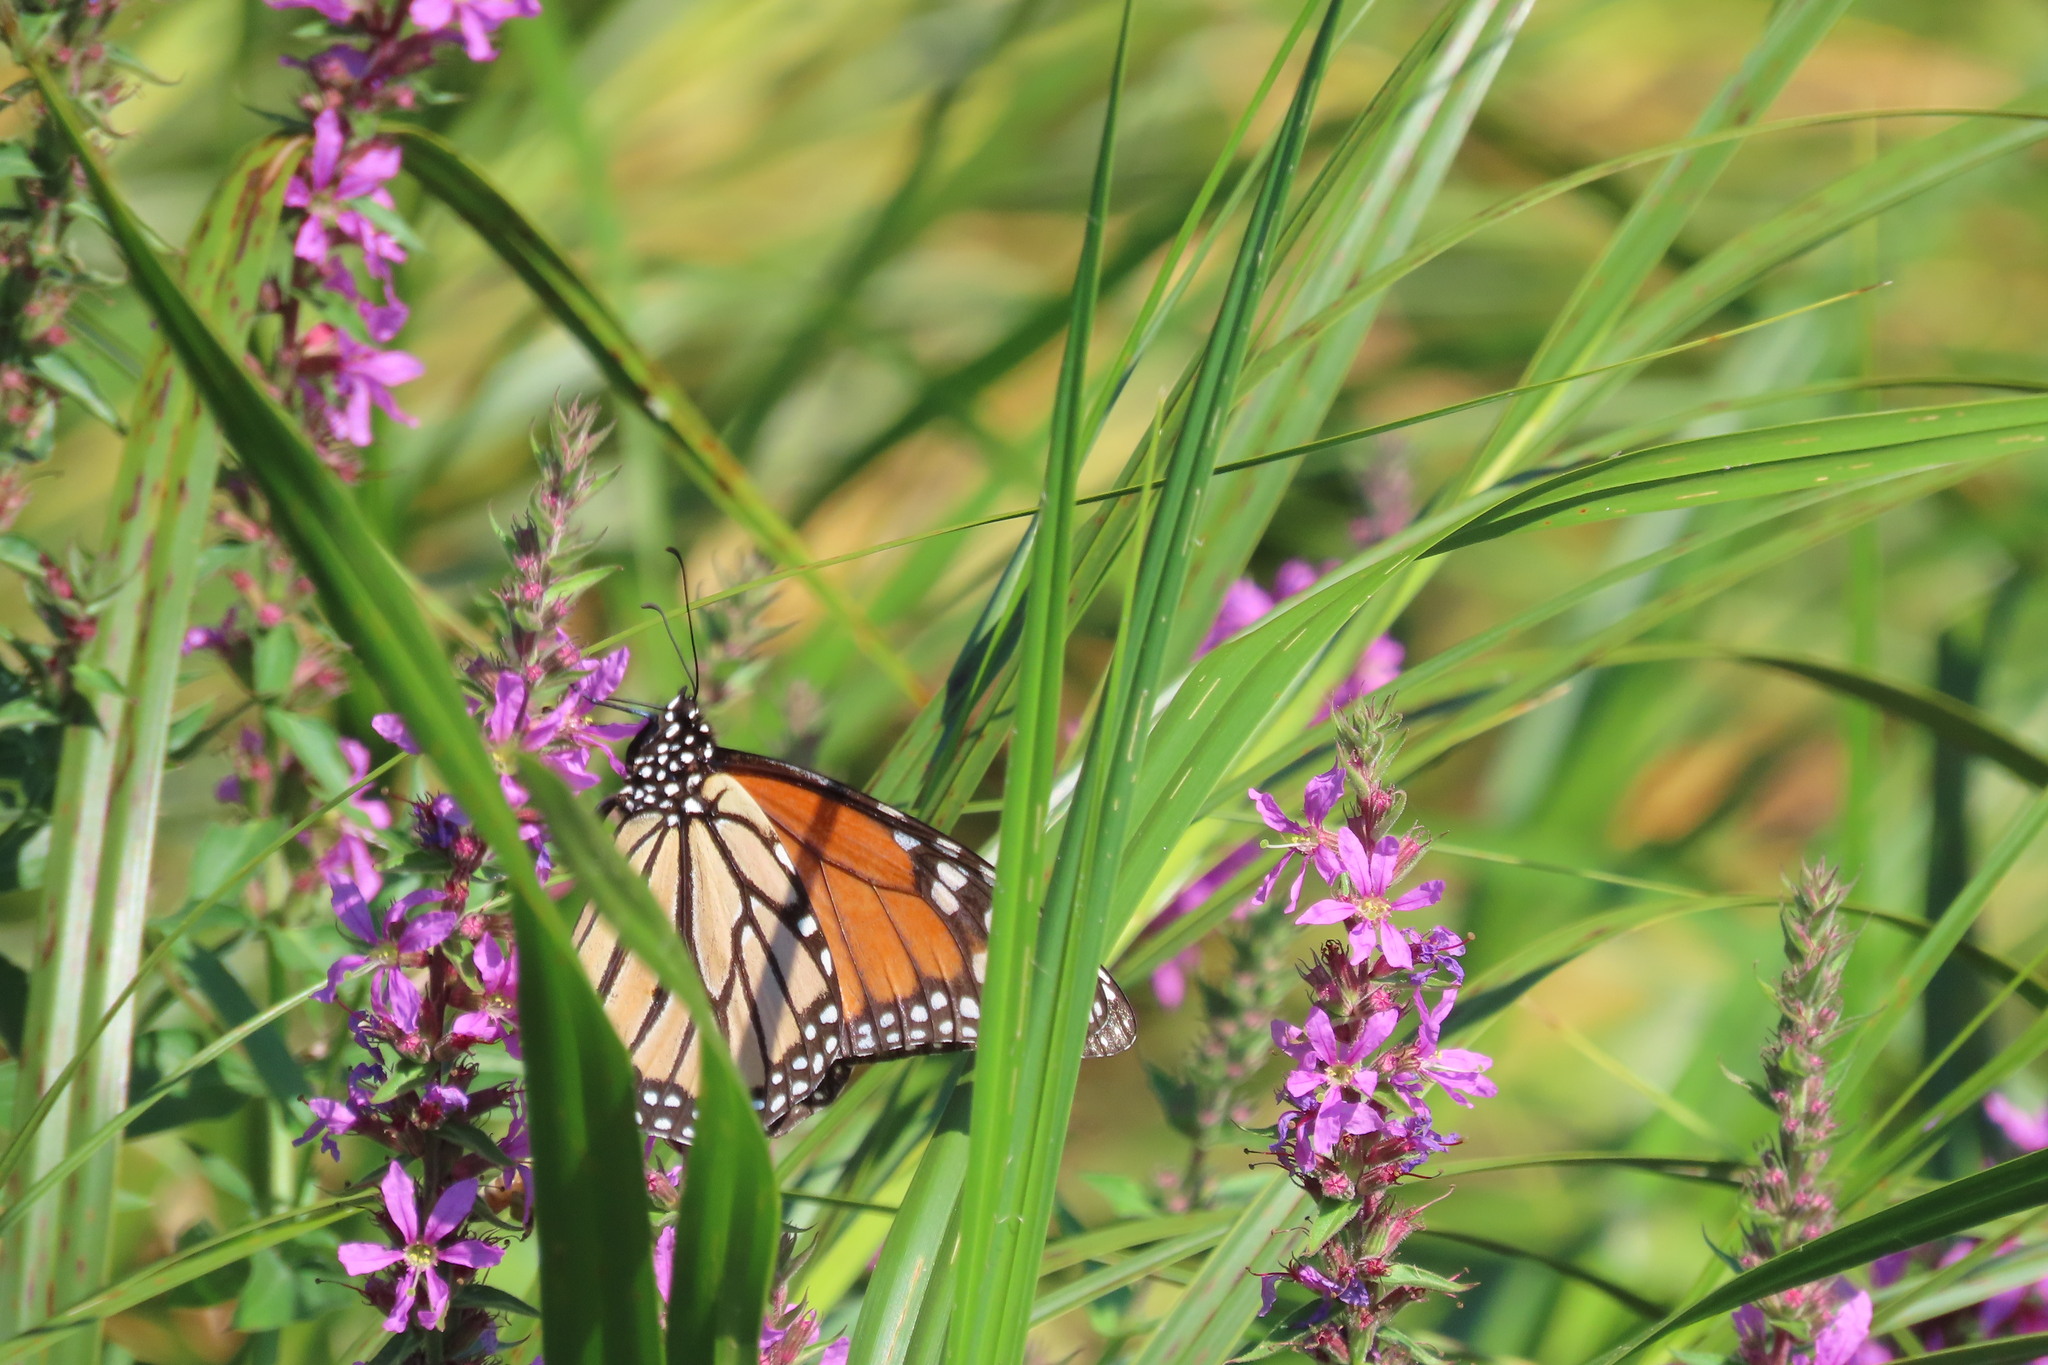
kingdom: Animalia
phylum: Arthropoda
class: Insecta
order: Lepidoptera
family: Nymphalidae
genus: Danaus
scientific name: Danaus plexippus
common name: Monarch
